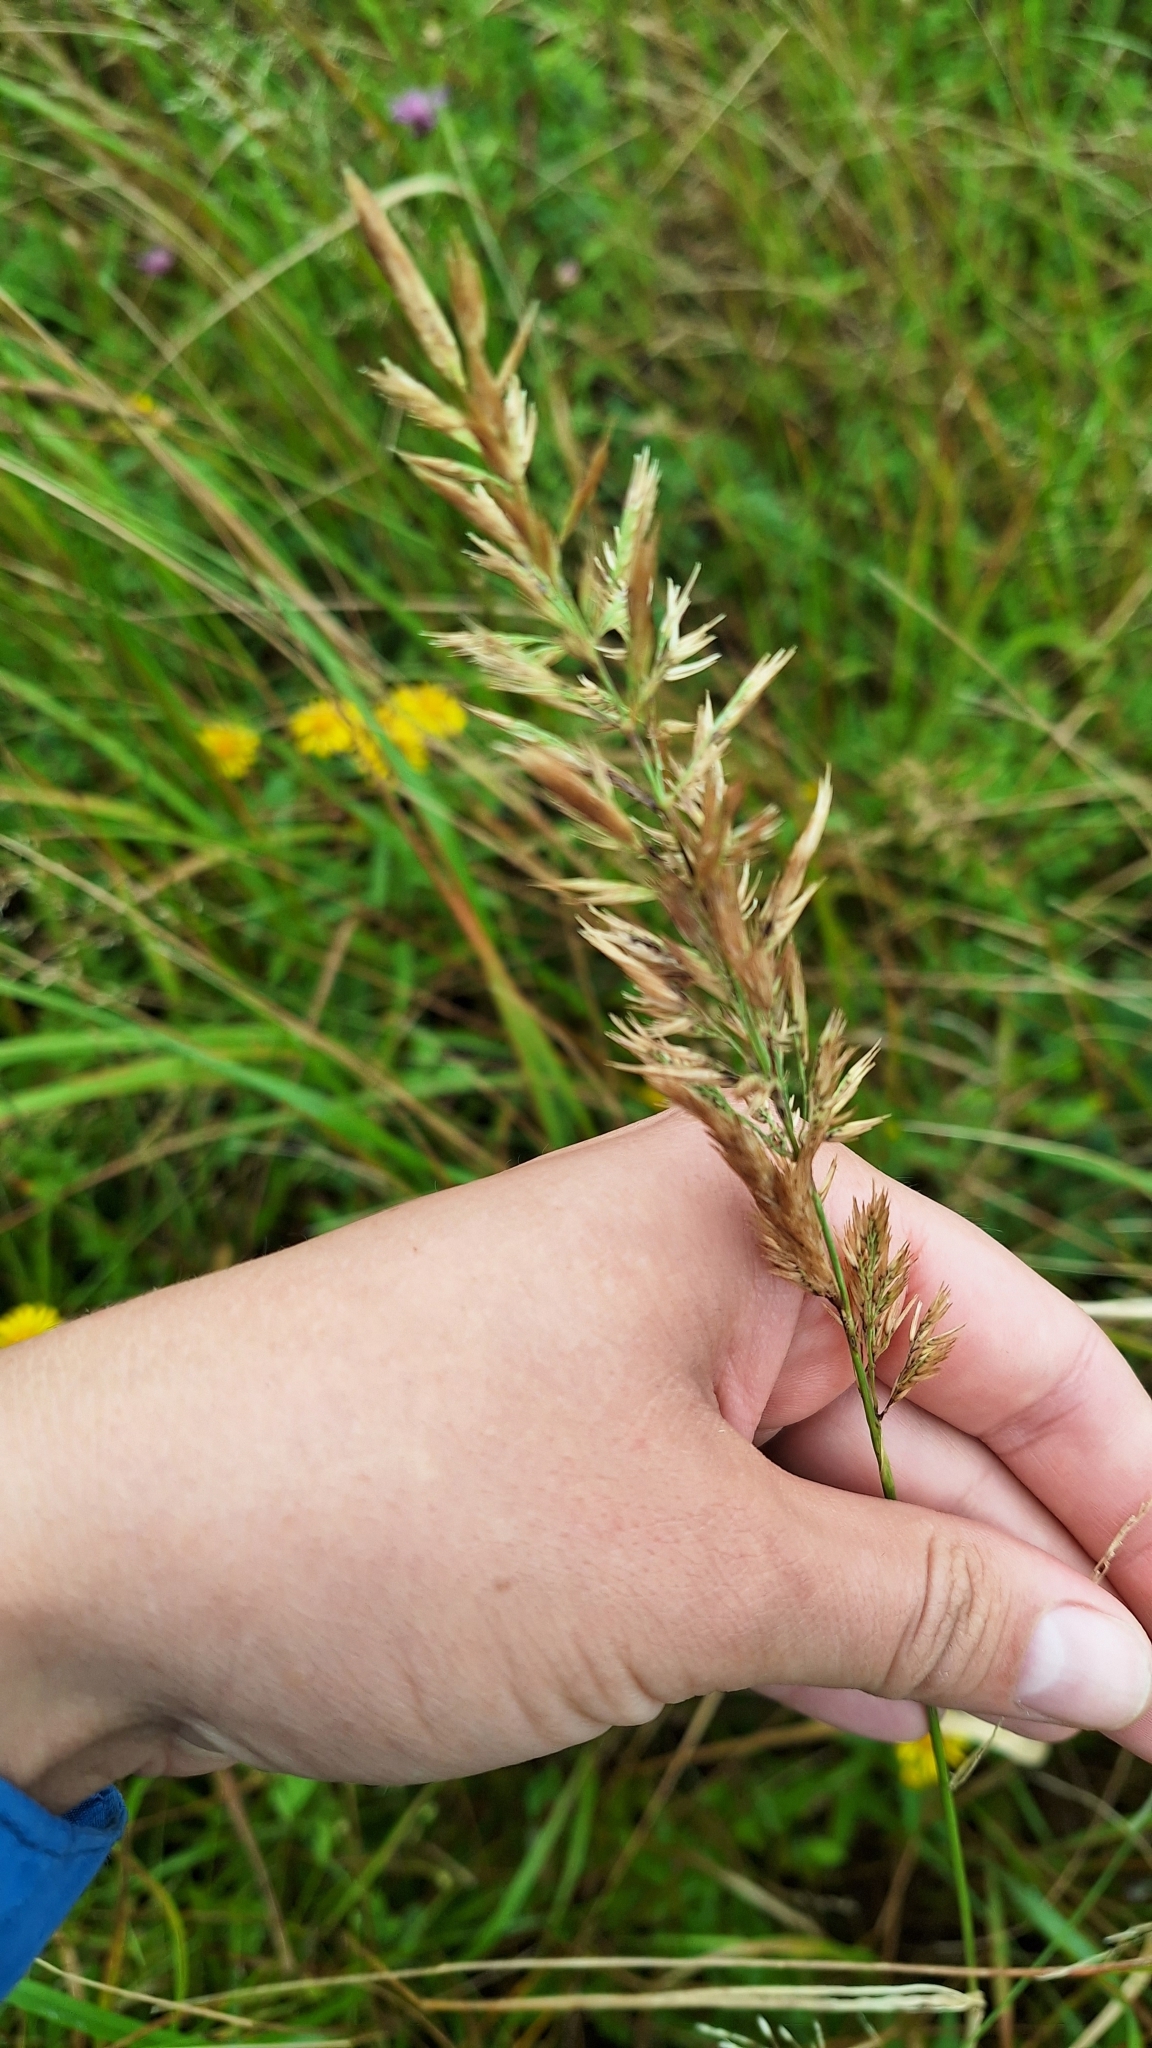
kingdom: Plantae
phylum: Tracheophyta
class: Liliopsida
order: Poales
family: Poaceae
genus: Calamagrostis
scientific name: Calamagrostis extremiorientalis
